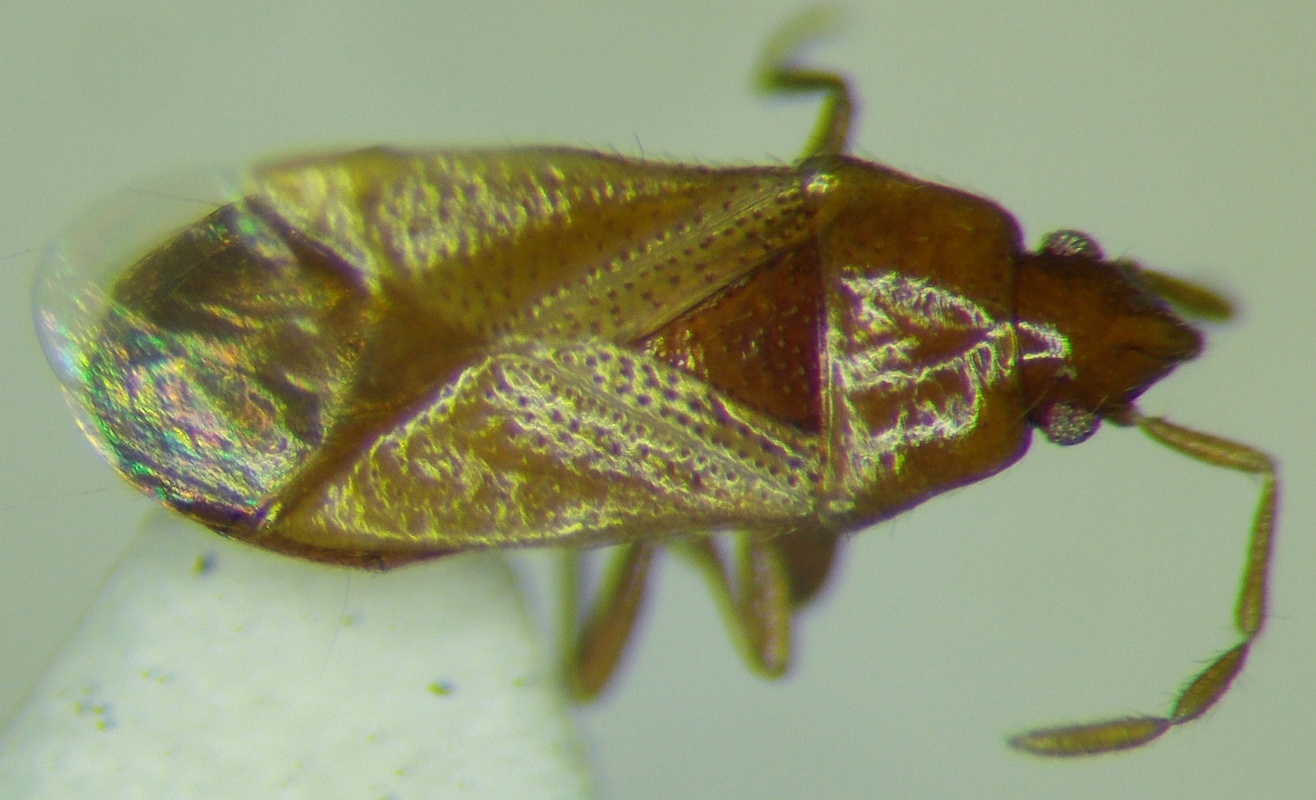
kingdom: Animalia
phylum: Arthropoda
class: Insecta
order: Hemiptera
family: Rhyparochromidae
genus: Camptocera
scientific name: Camptocera glaberrima
